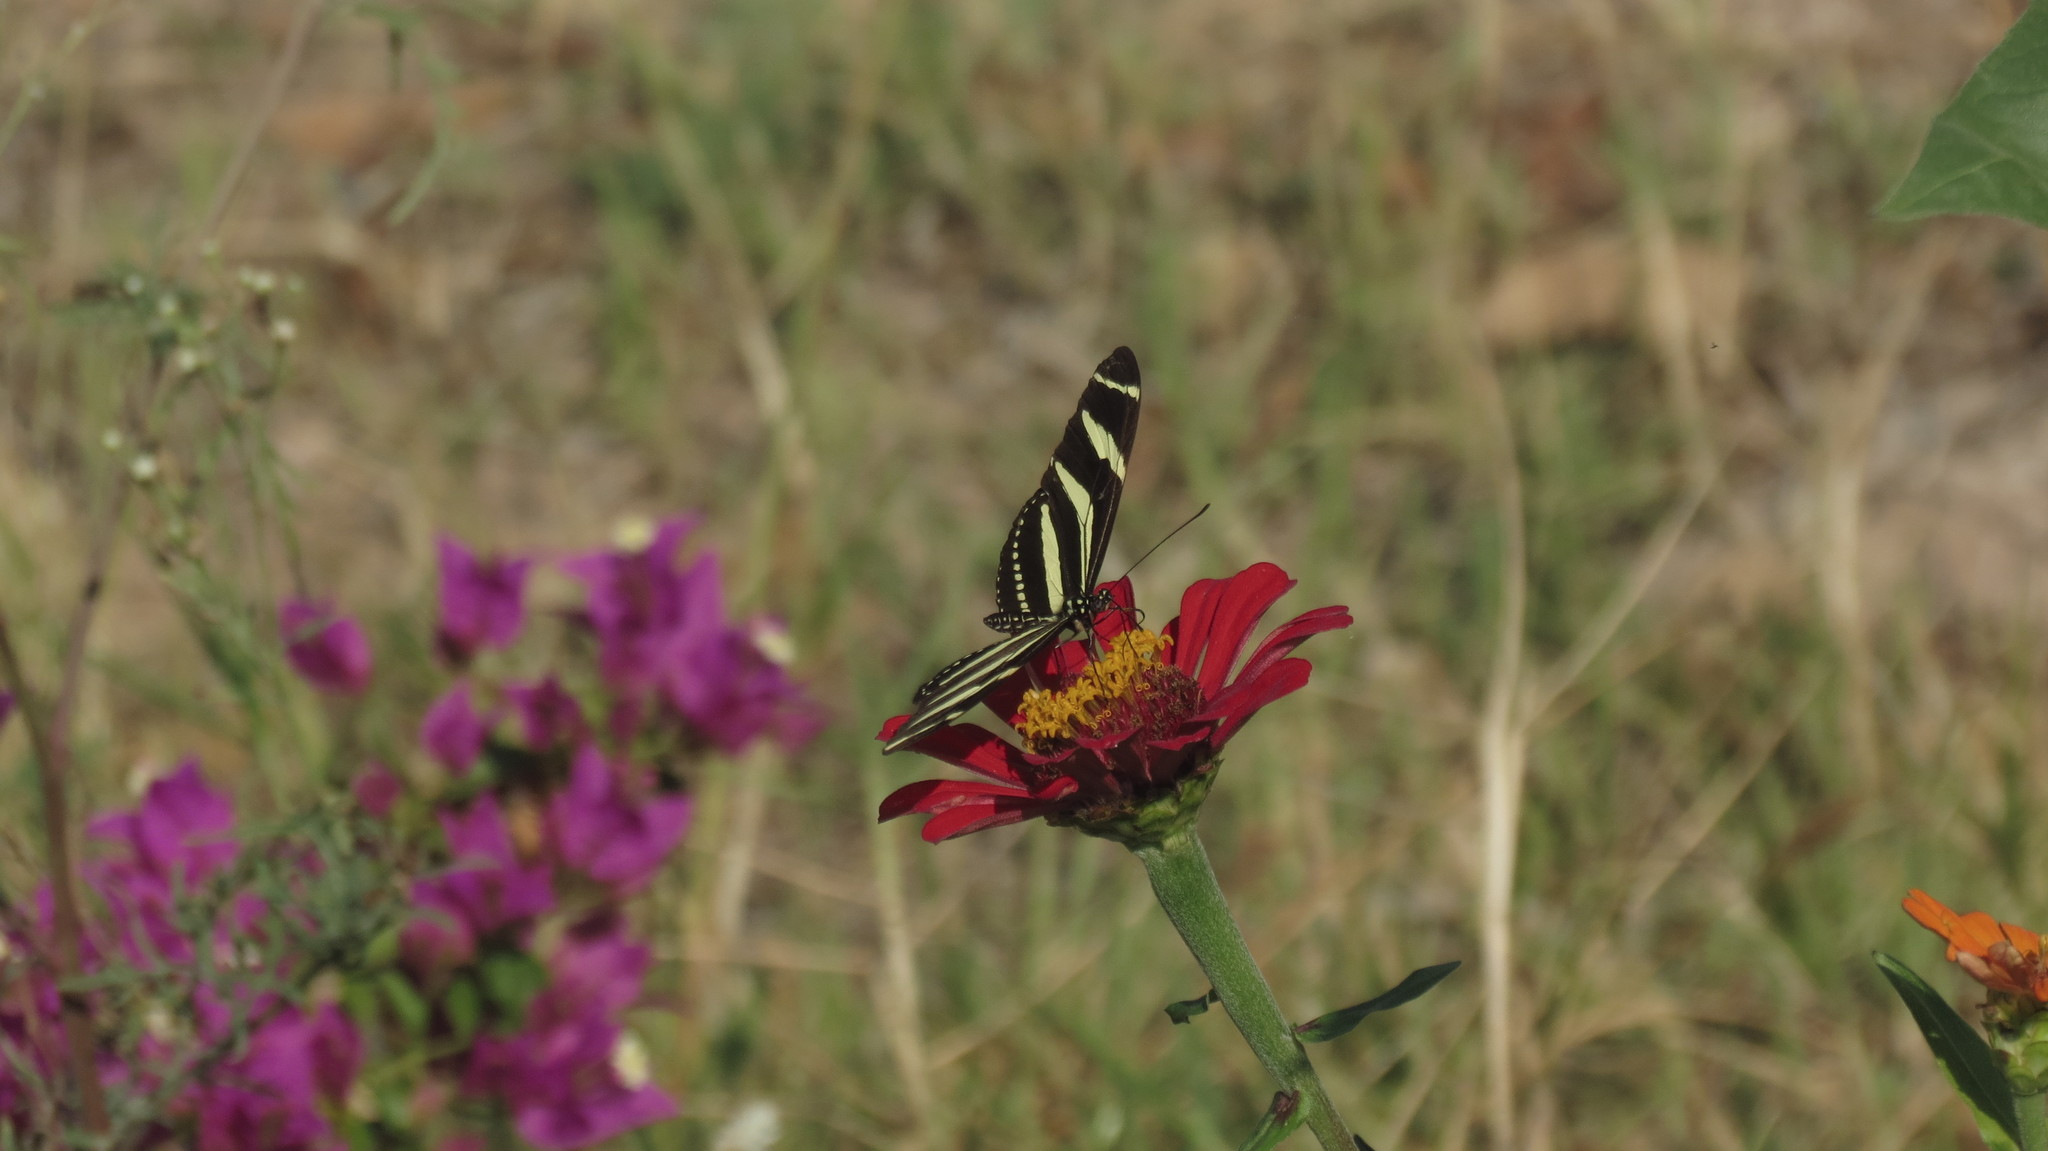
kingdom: Animalia
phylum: Arthropoda
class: Insecta
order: Lepidoptera
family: Nymphalidae
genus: Heliconius
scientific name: Heliconius charithonia
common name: Zebra long wing
